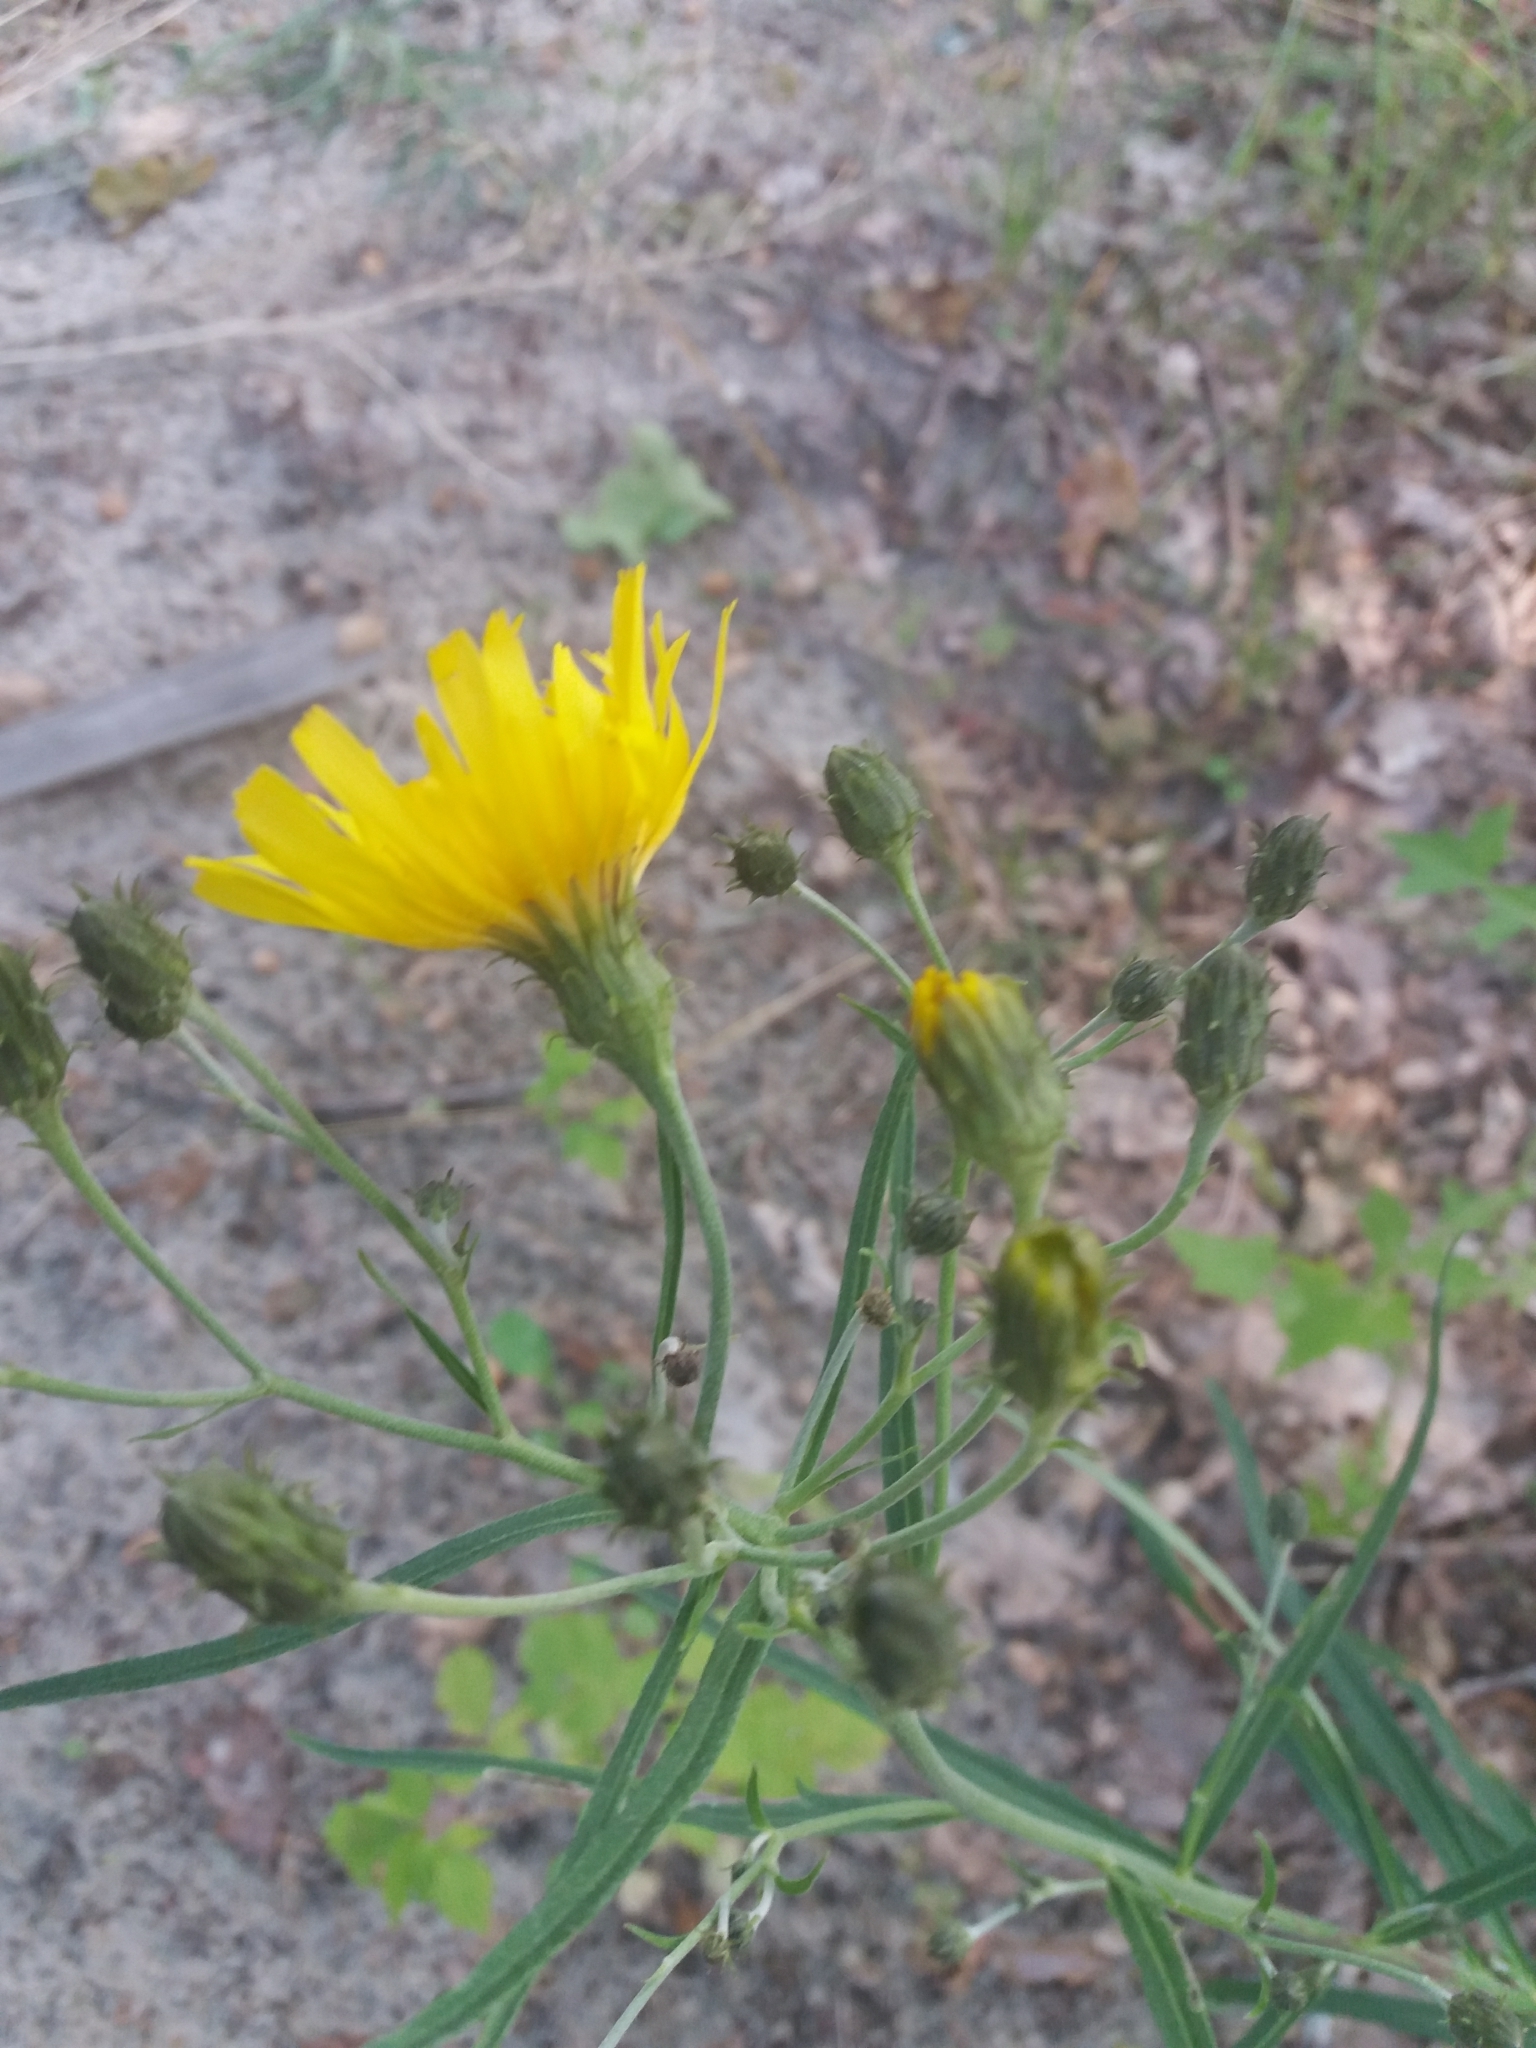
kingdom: Plantae
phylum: Tracheophyta
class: Magnoliopsida
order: Asterales
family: Asteraceae
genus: Hieracium
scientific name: Hieracium umbellatum
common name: Northern hawkweed
